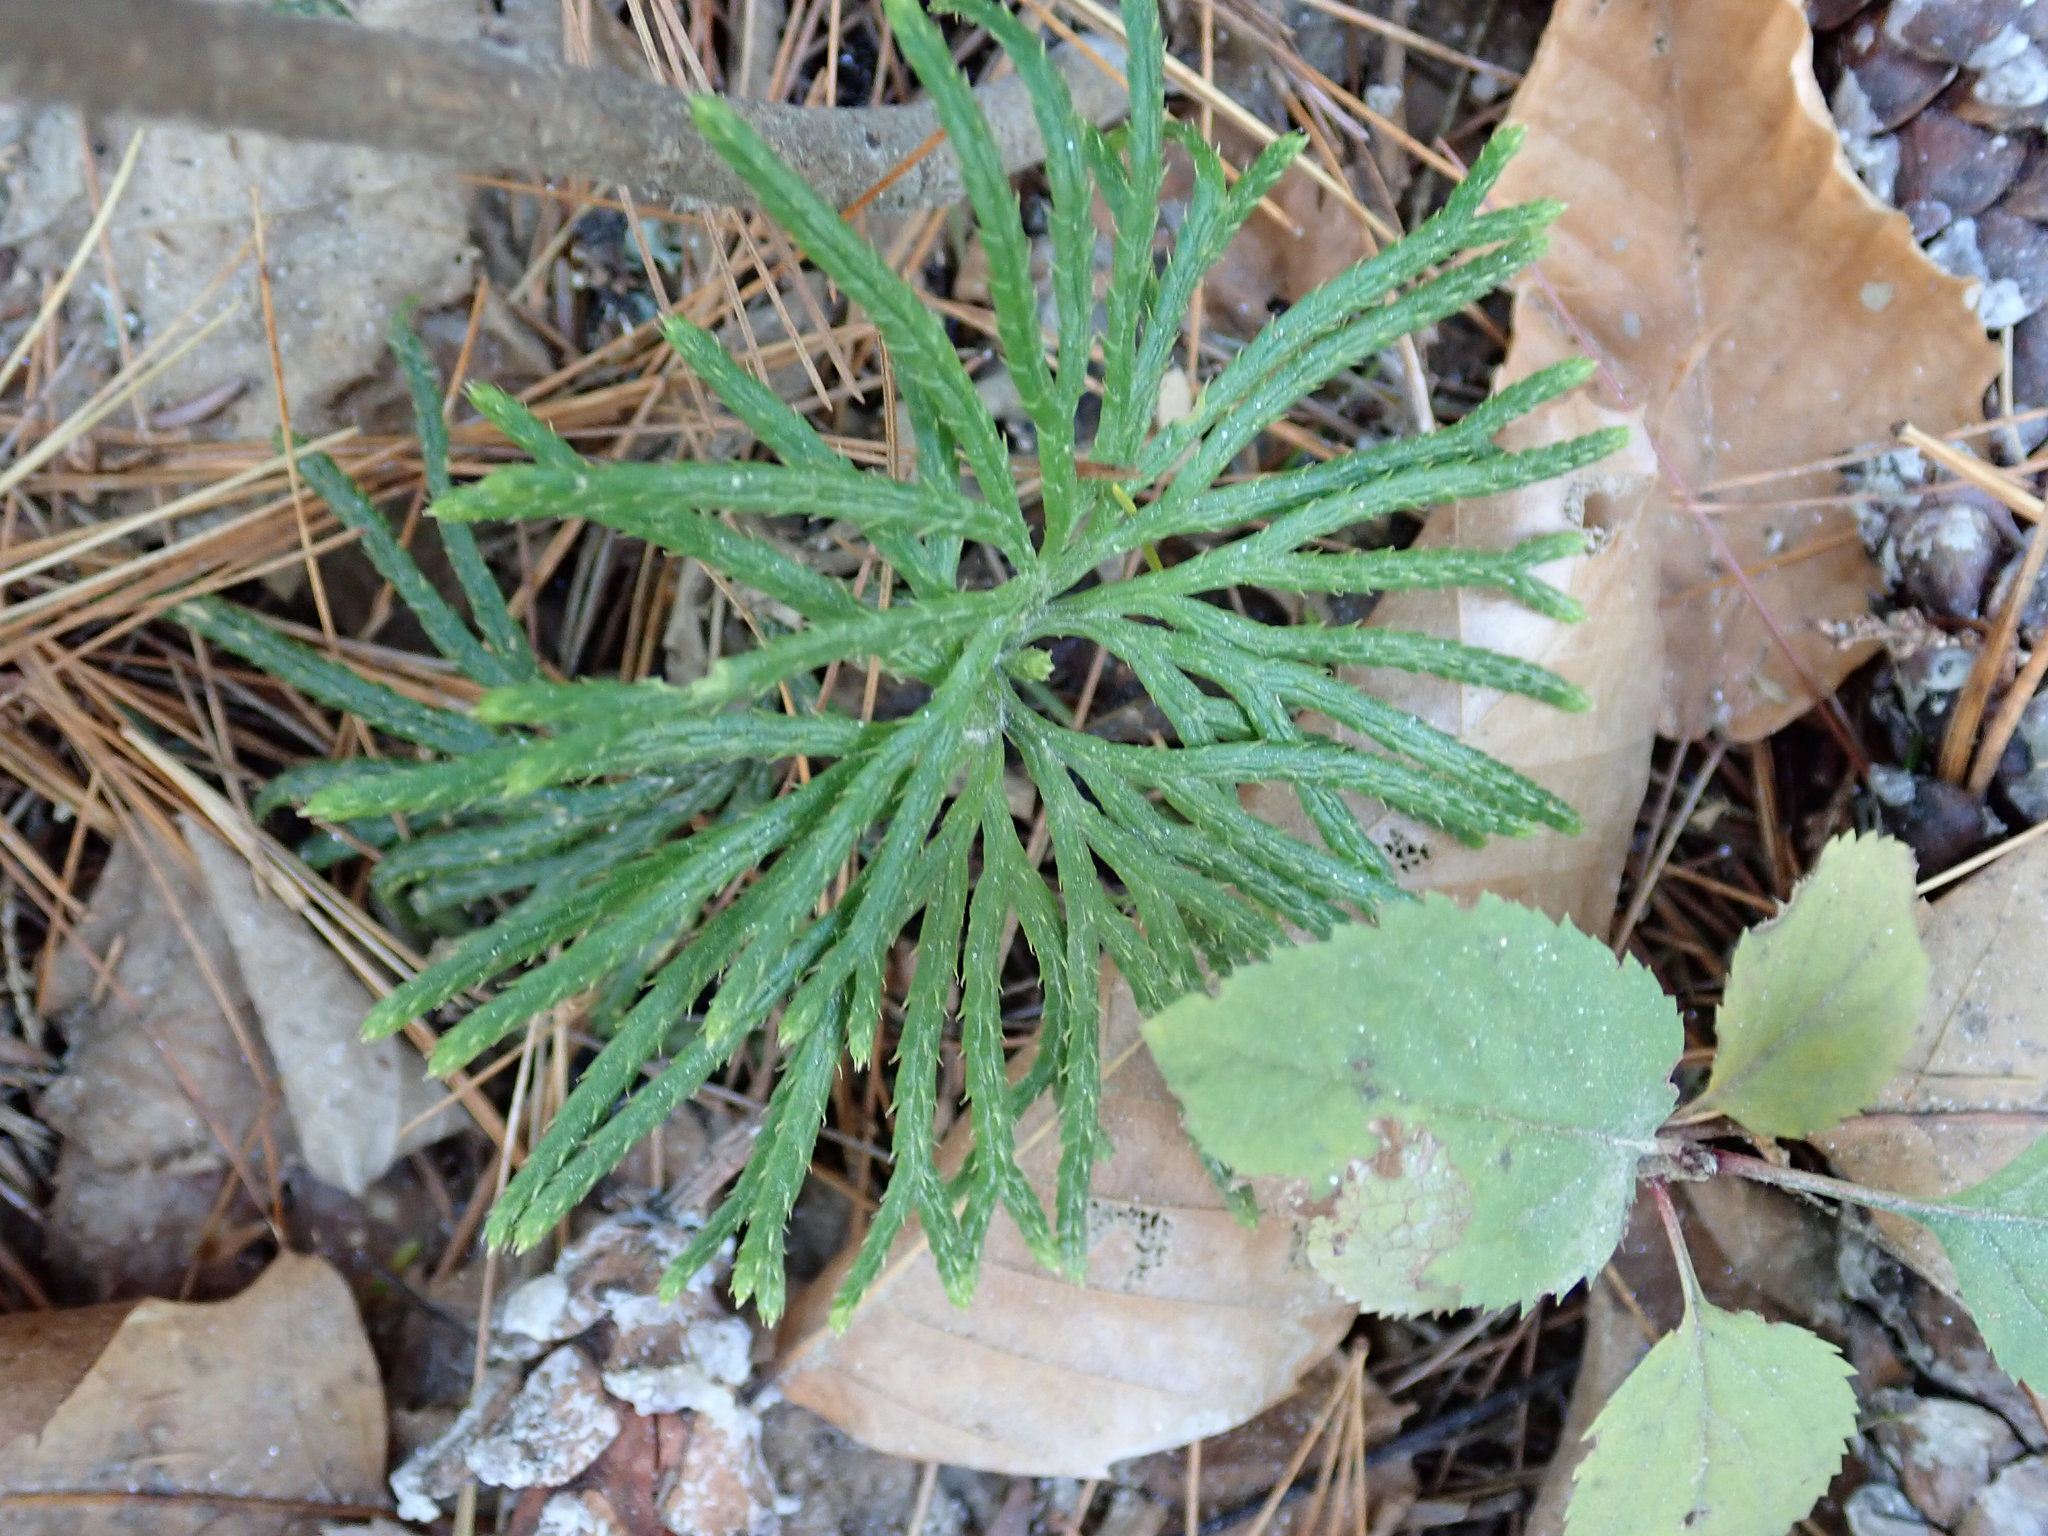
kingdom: Plantae
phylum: Tracheophyta
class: Lycopodiopsida
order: Lycopodiales
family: Lycopodiaceae
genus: Diphasiastrum
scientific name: Diphasiastrum digitatum
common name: Southern running-pine
